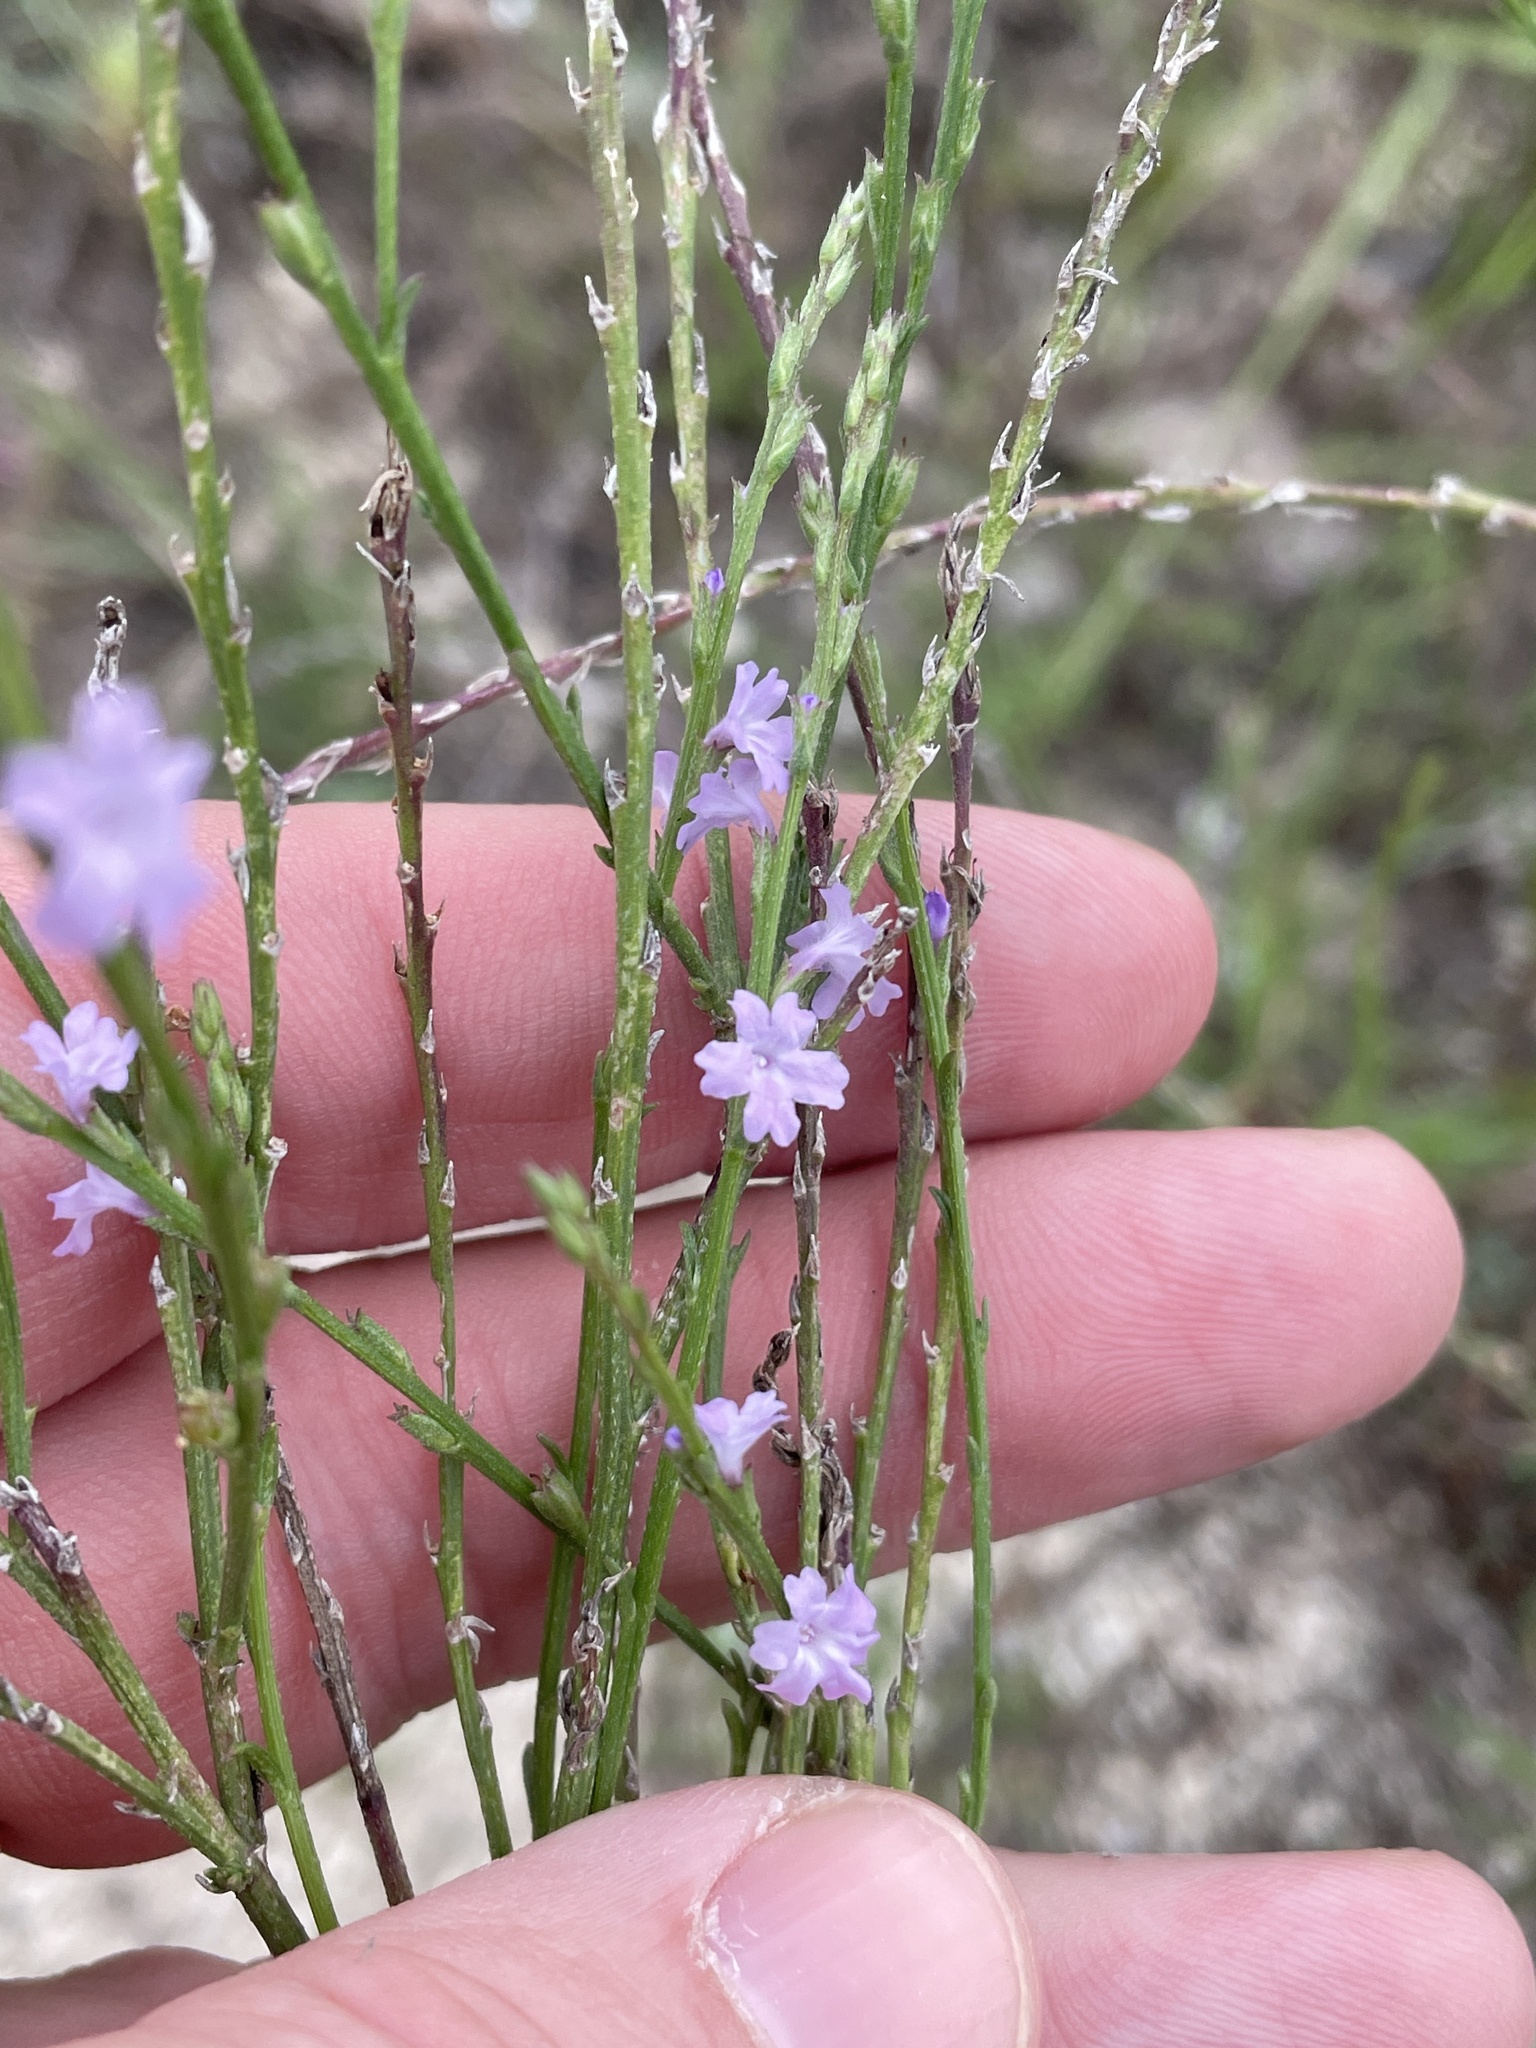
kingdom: Plantae
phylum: Tracheophyta
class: Magnoliopsida
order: Lamiales
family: Verbenaceae
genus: Verbena
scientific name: Verbena halei
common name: Texas vervain
